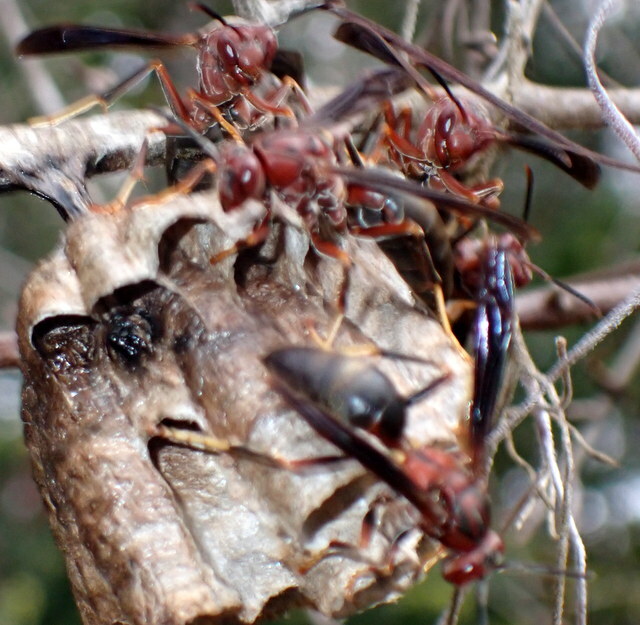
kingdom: Animalia
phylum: Arthropoda
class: Insecta
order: Hymenoptera
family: Eumenidae
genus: Polistes
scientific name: Polistes metricus
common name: Metric paper wasp
